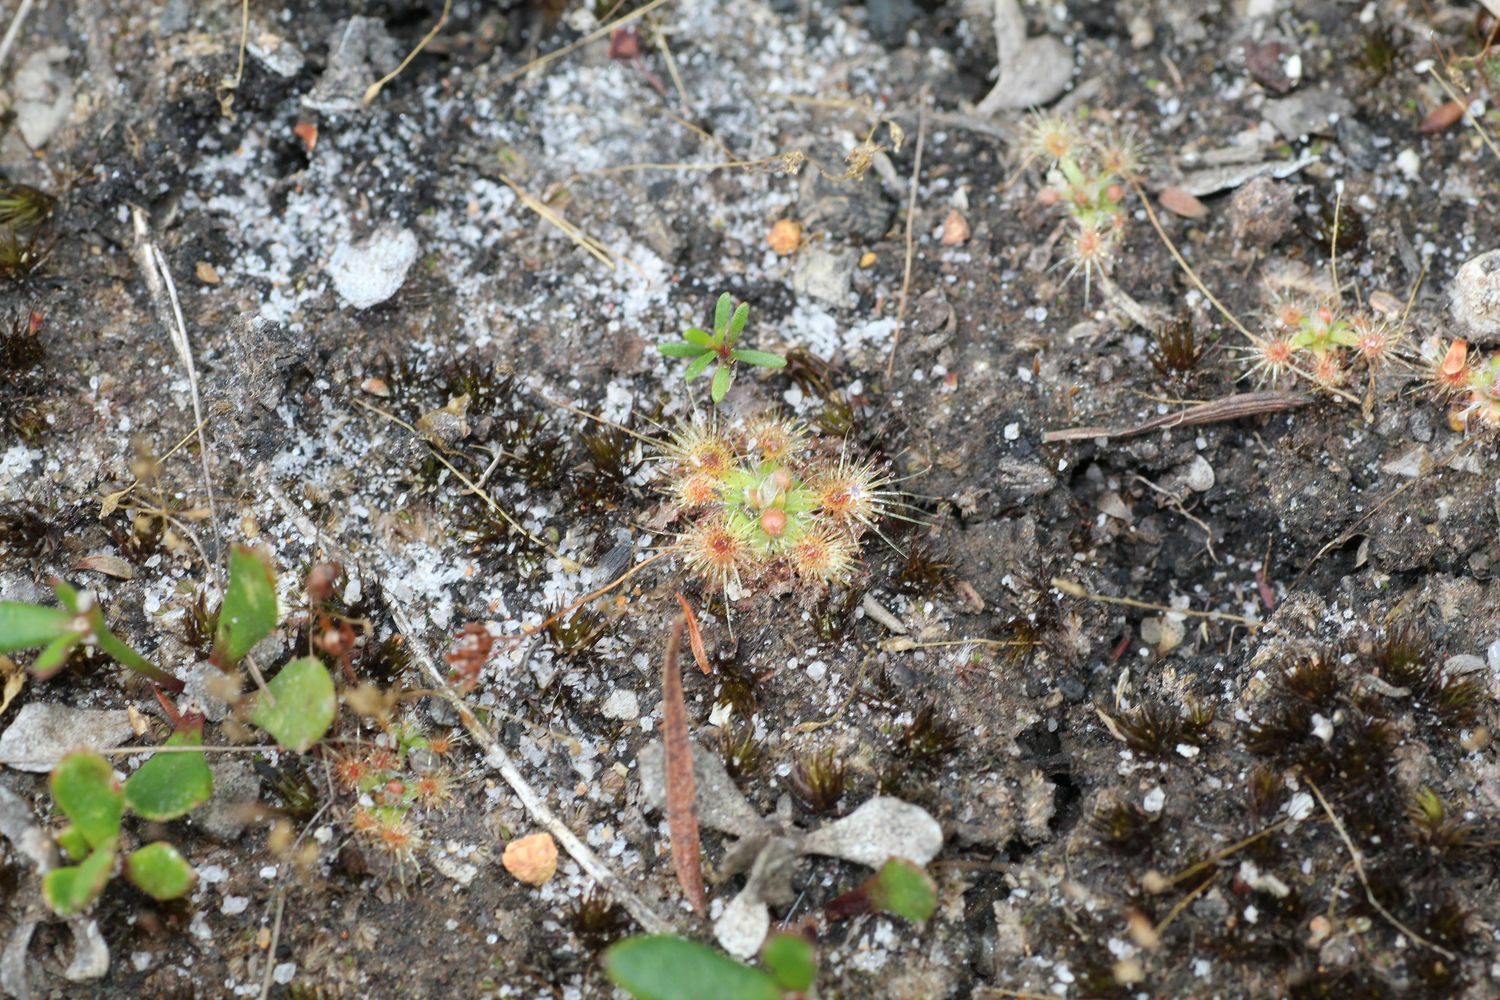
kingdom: Plantae
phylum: Tracheophyta
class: Magnoliopsida
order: Caryophyllales
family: Droseraceae
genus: Drosera
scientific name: Drosera pulchella
